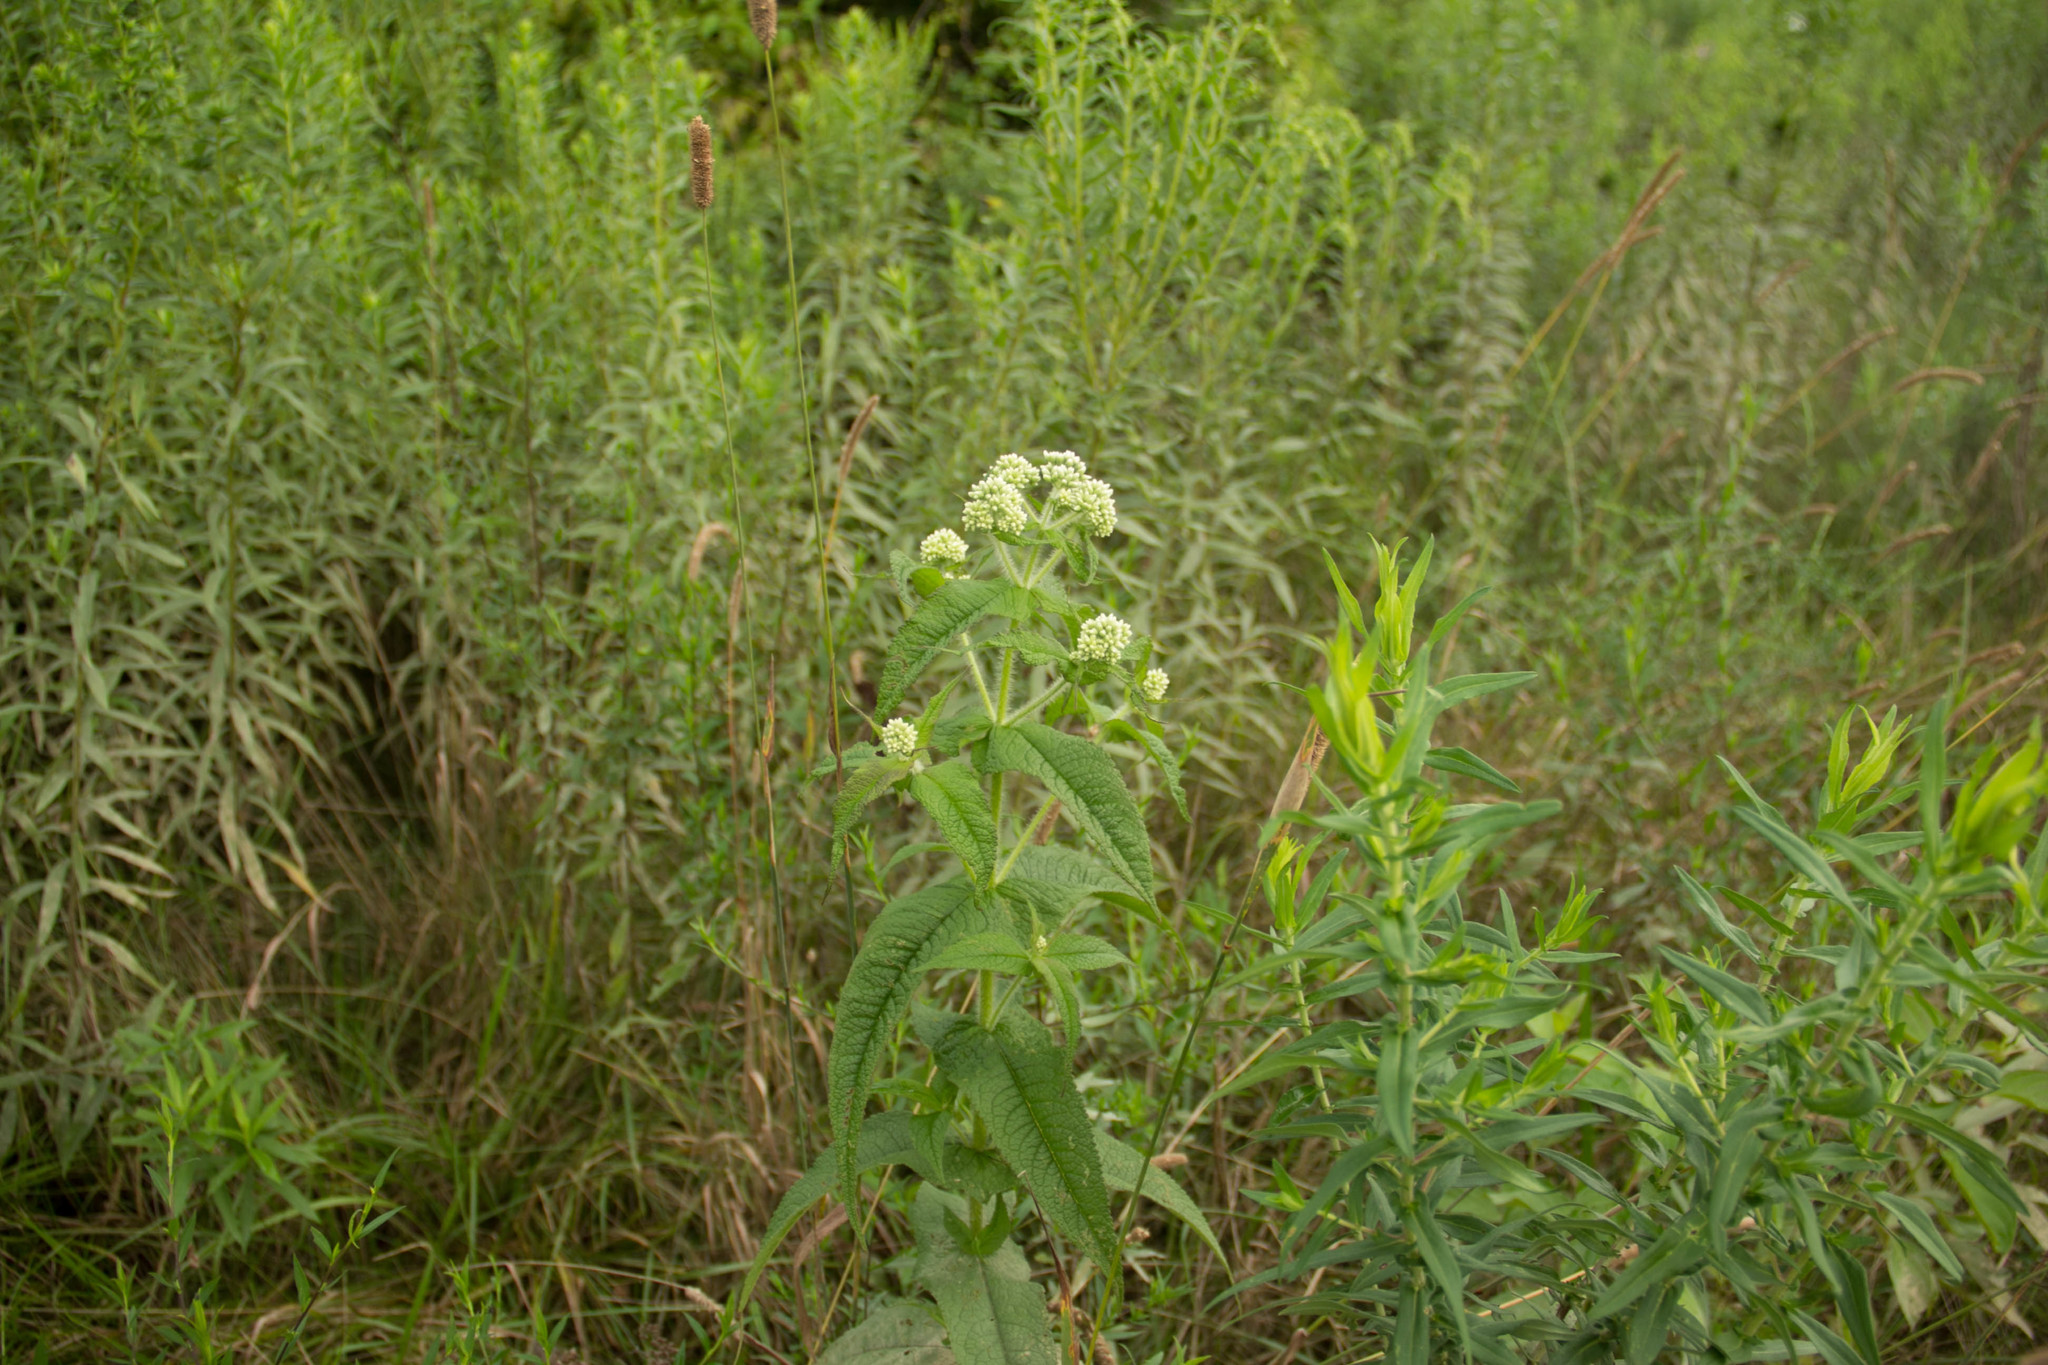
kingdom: Plantae
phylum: Tracheophyta
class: Magnoliopsida
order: Asterales
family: Asteraceae
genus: Eupatorium
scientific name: Eupatorium perfoliatum
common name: Boneset
